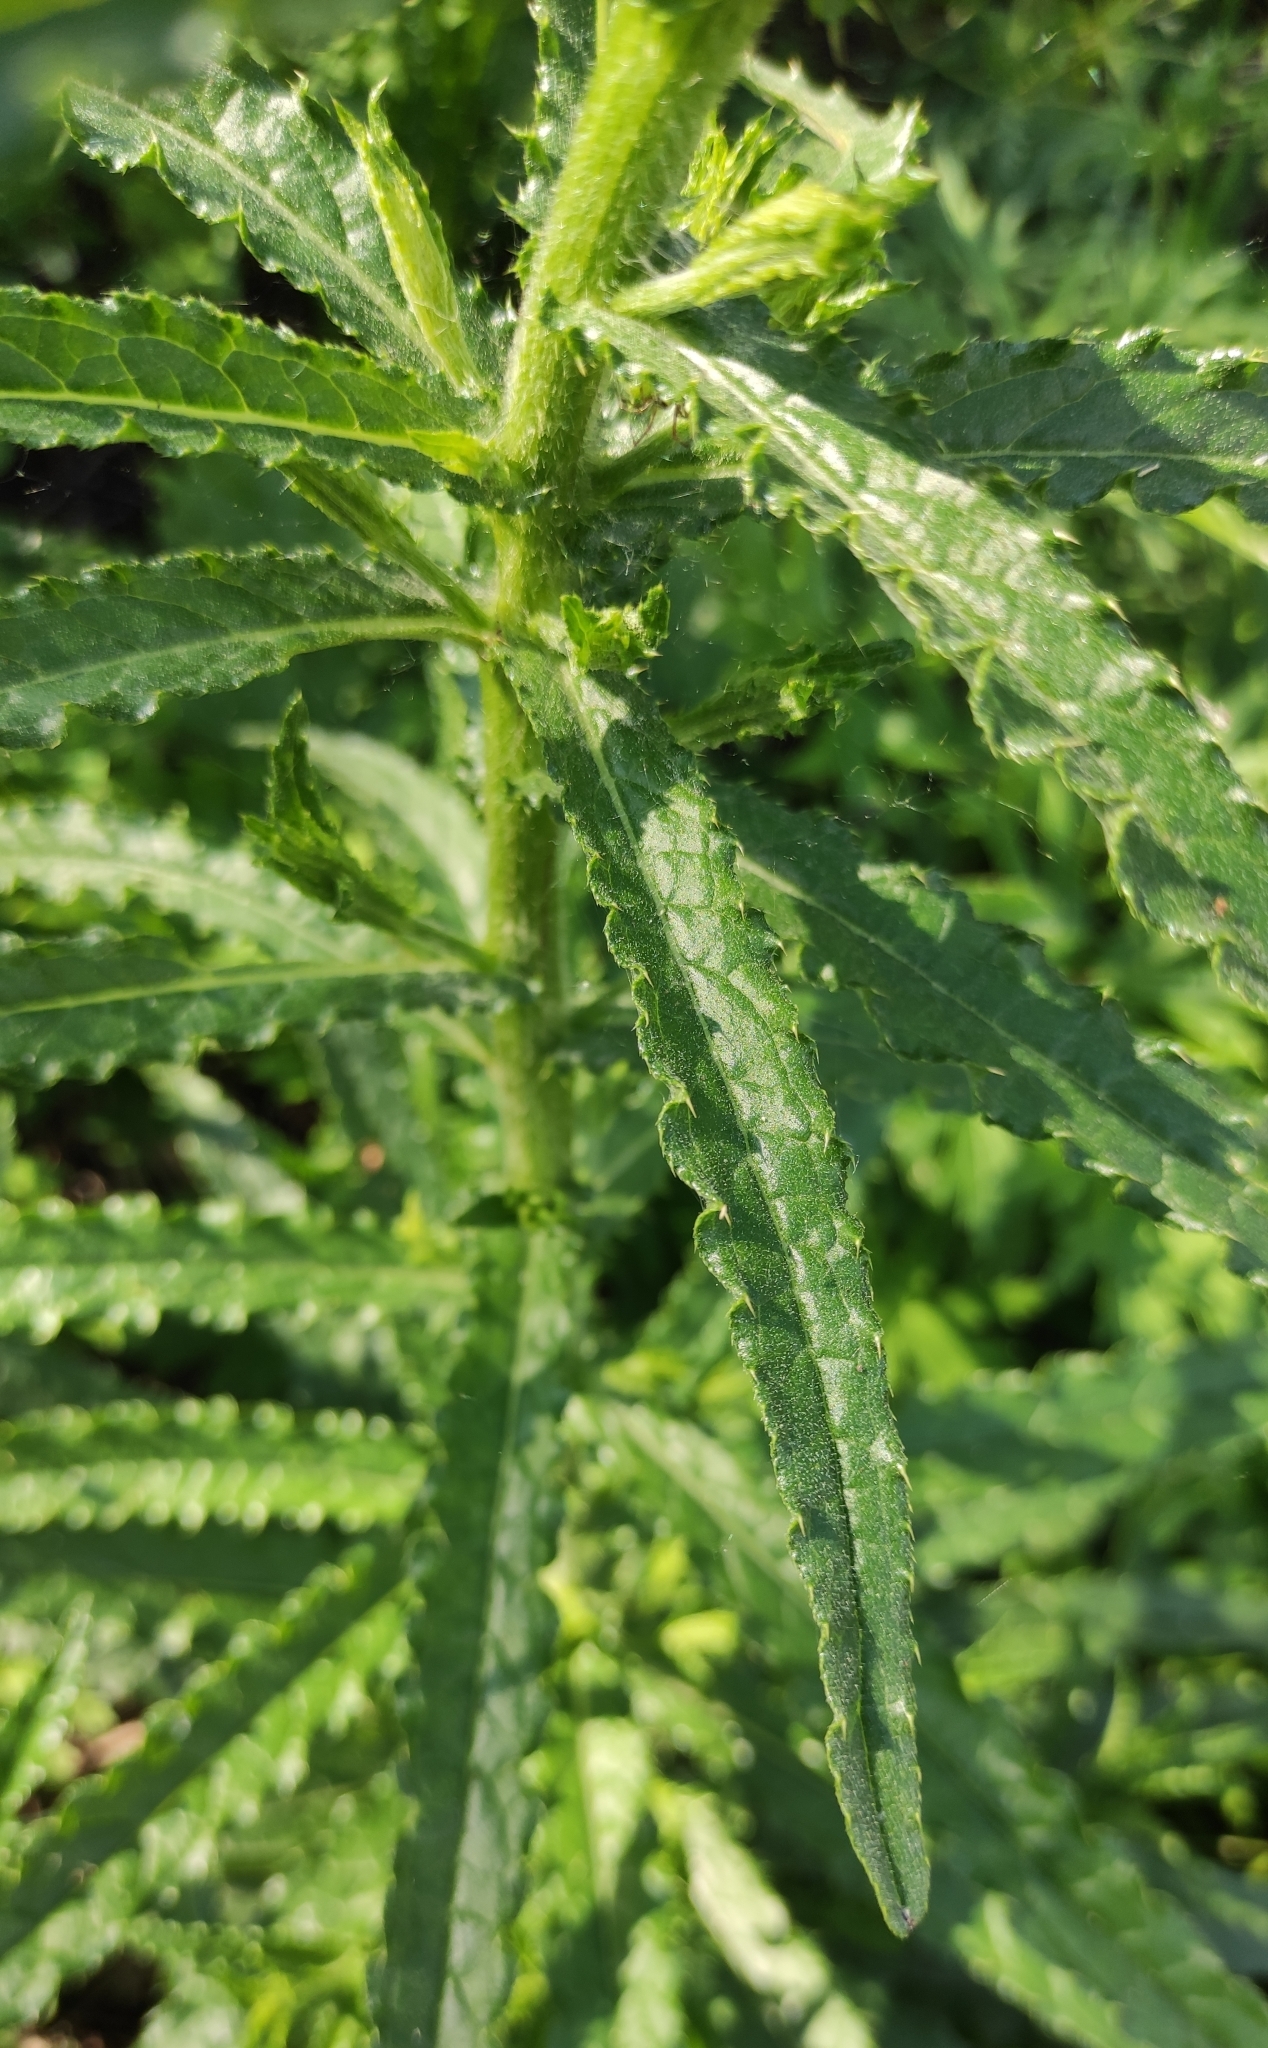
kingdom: Plantae
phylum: Tracheophyta
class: Magnoliopsida
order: Asterales
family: Asteraceae
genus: Cirsium
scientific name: Cirsium serratuloides
